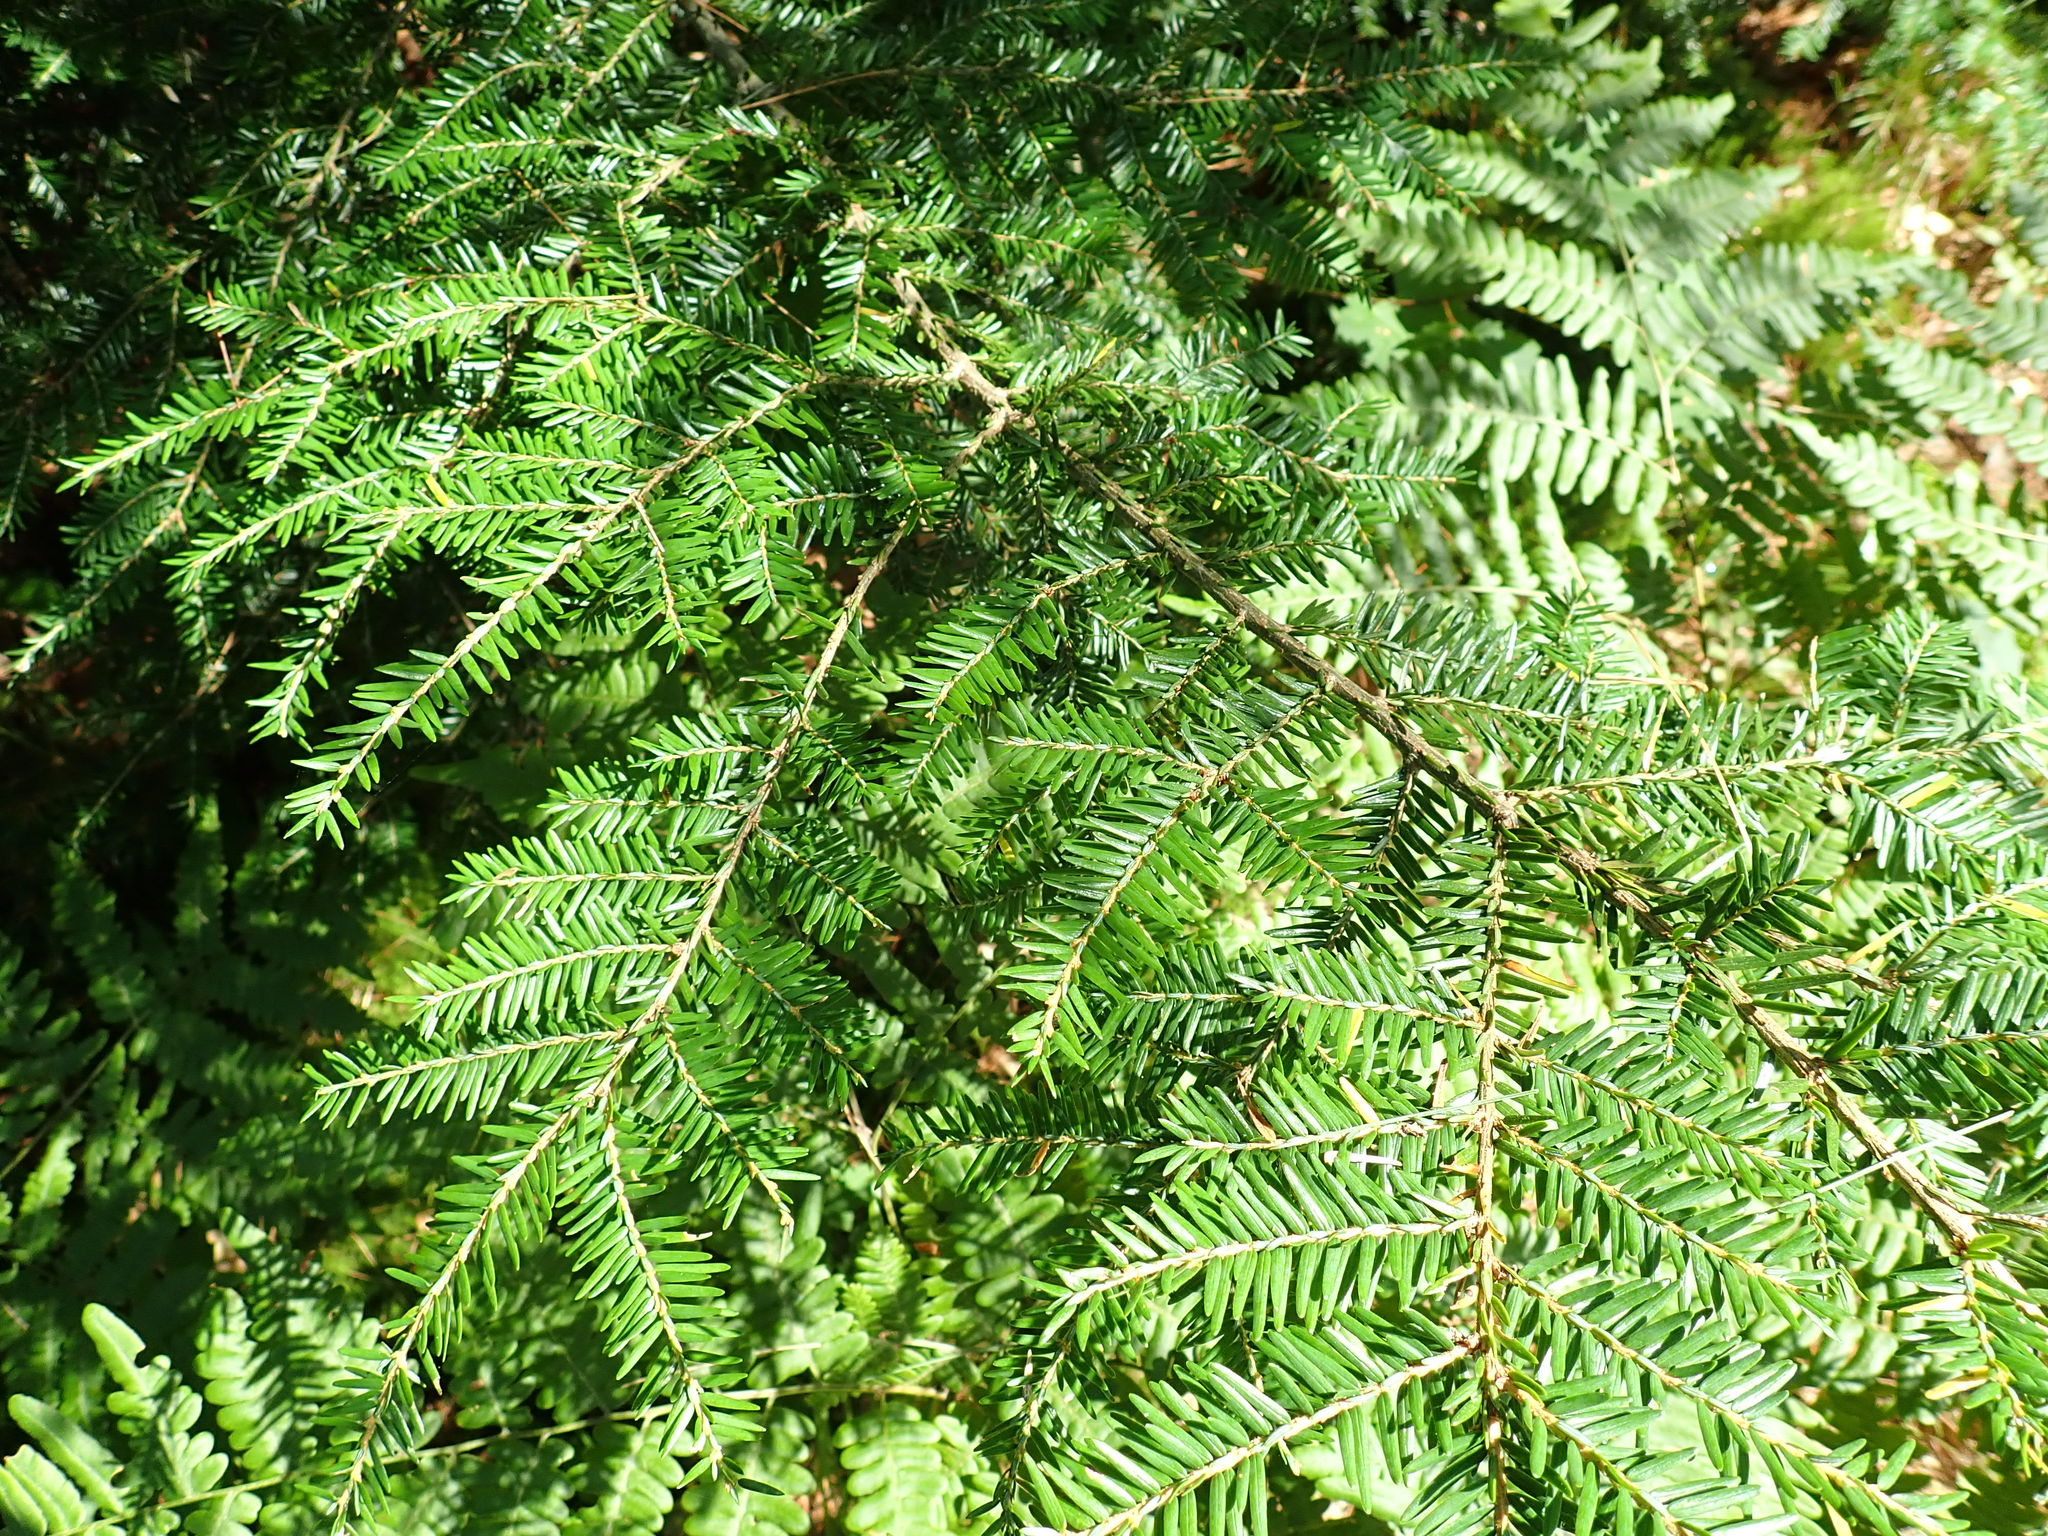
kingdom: Plantae
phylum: Tracheophyta
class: Pinopsida
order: Pinales
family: Pinaceae
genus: Tsuga
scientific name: Tsuga canadensis
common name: Eastern hemlock
